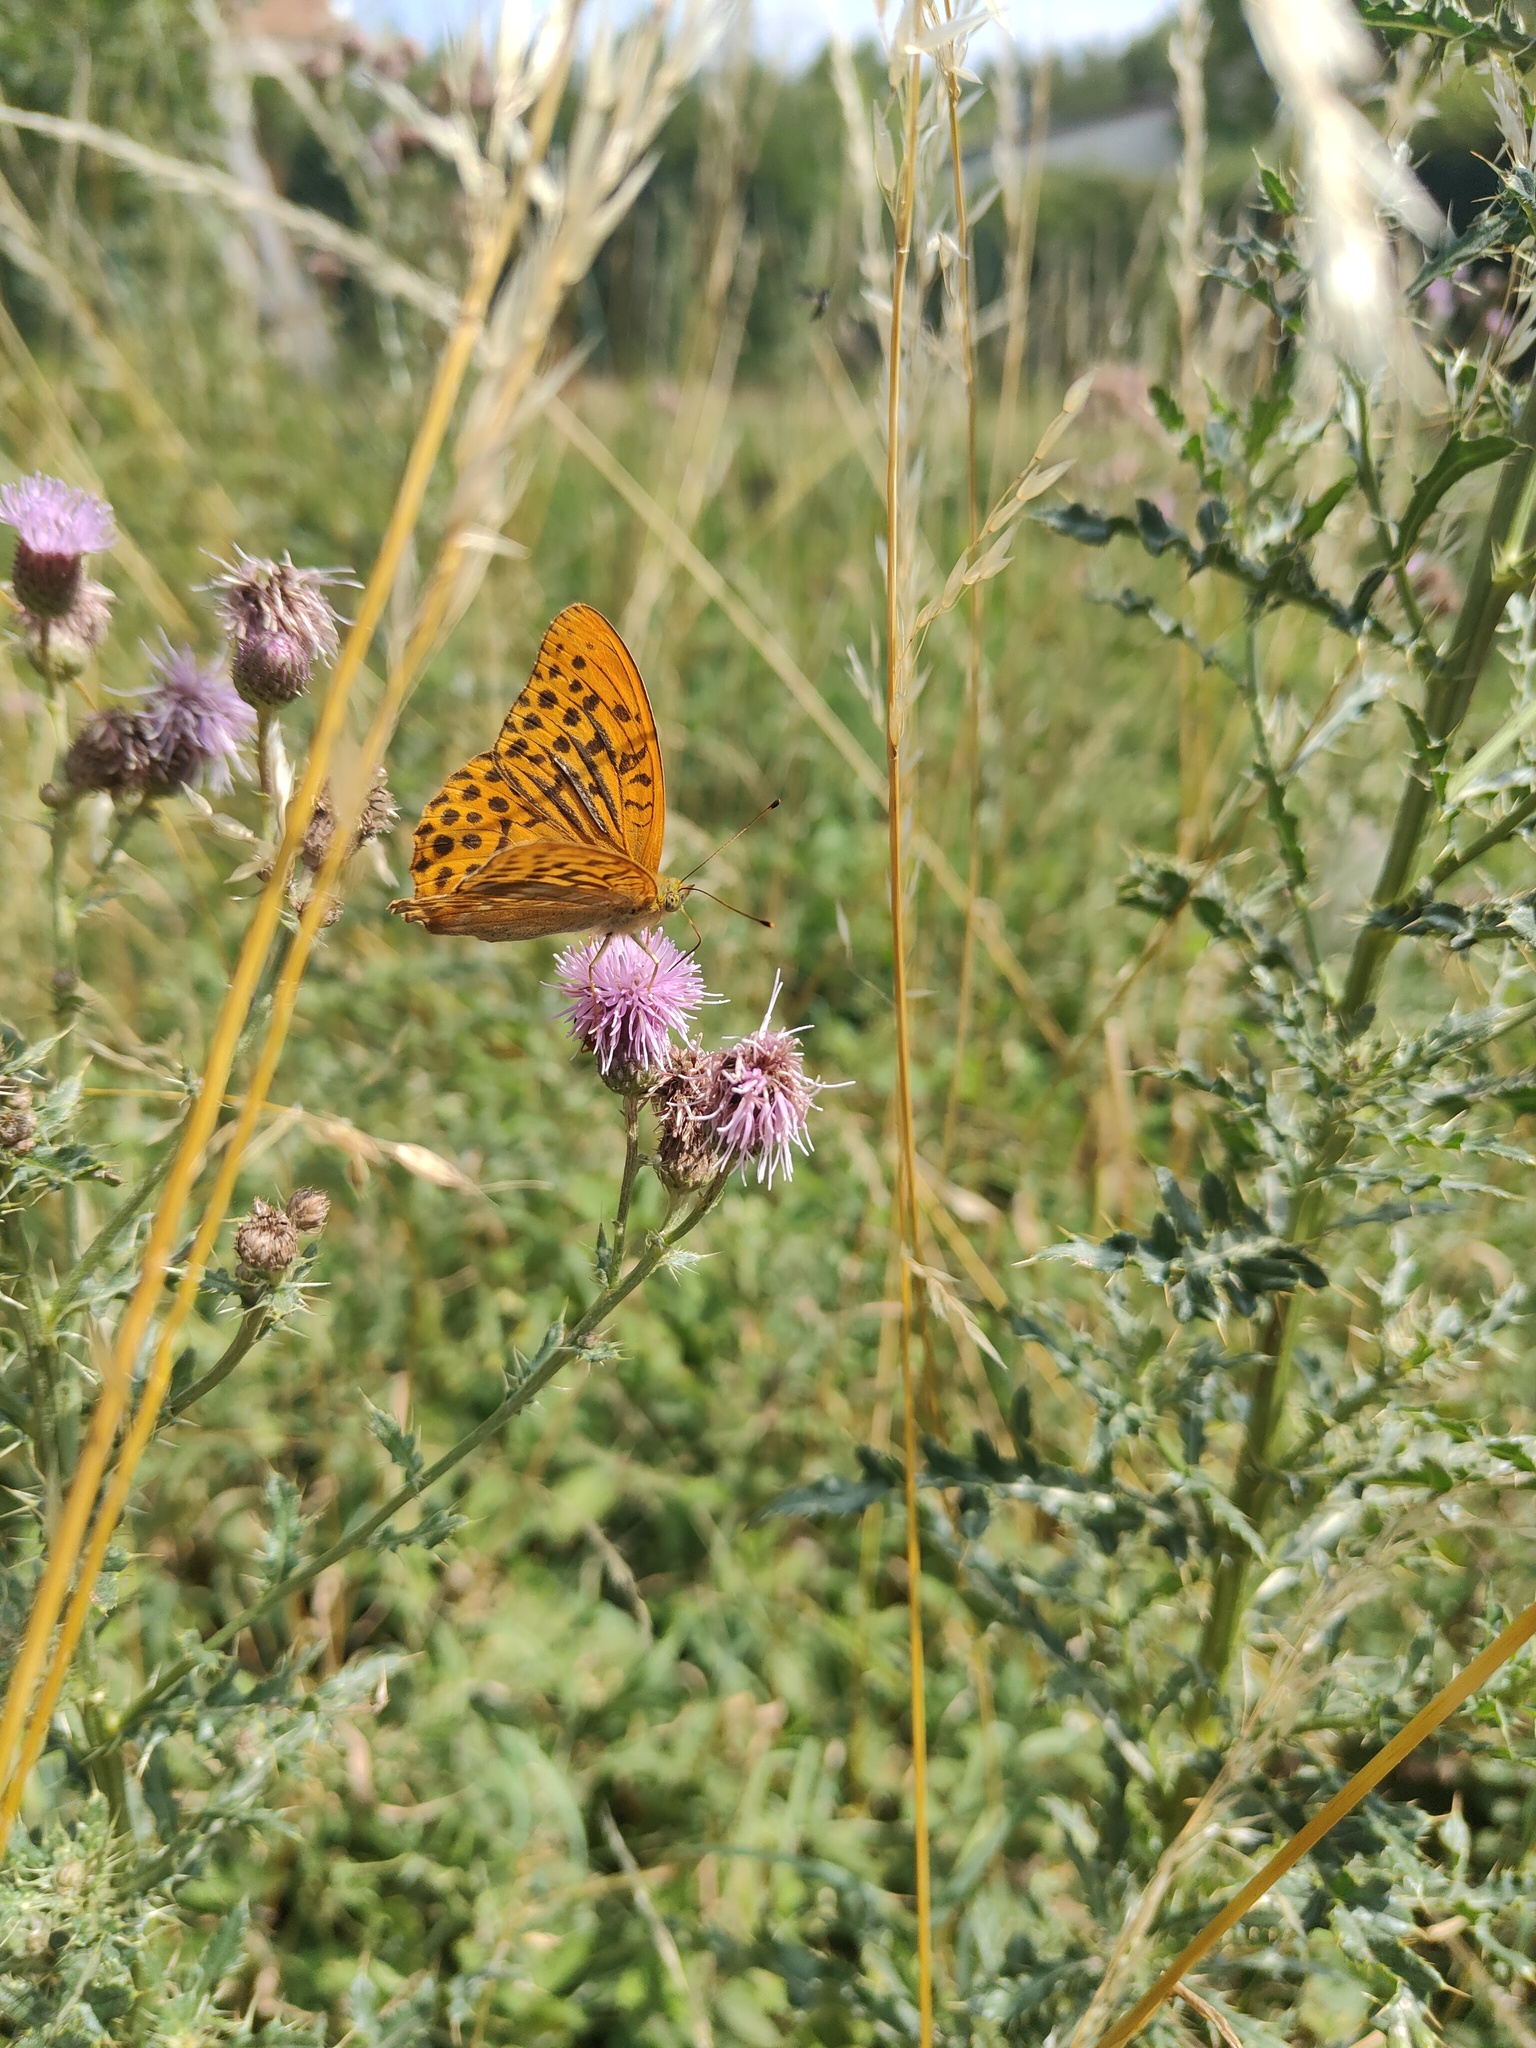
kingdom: Animalia
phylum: Arthropoda
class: Insecta
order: Lepidoptera
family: Nymphalidae
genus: Argynnis
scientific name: Argynnis paphia
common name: Silver-washed fritillary
